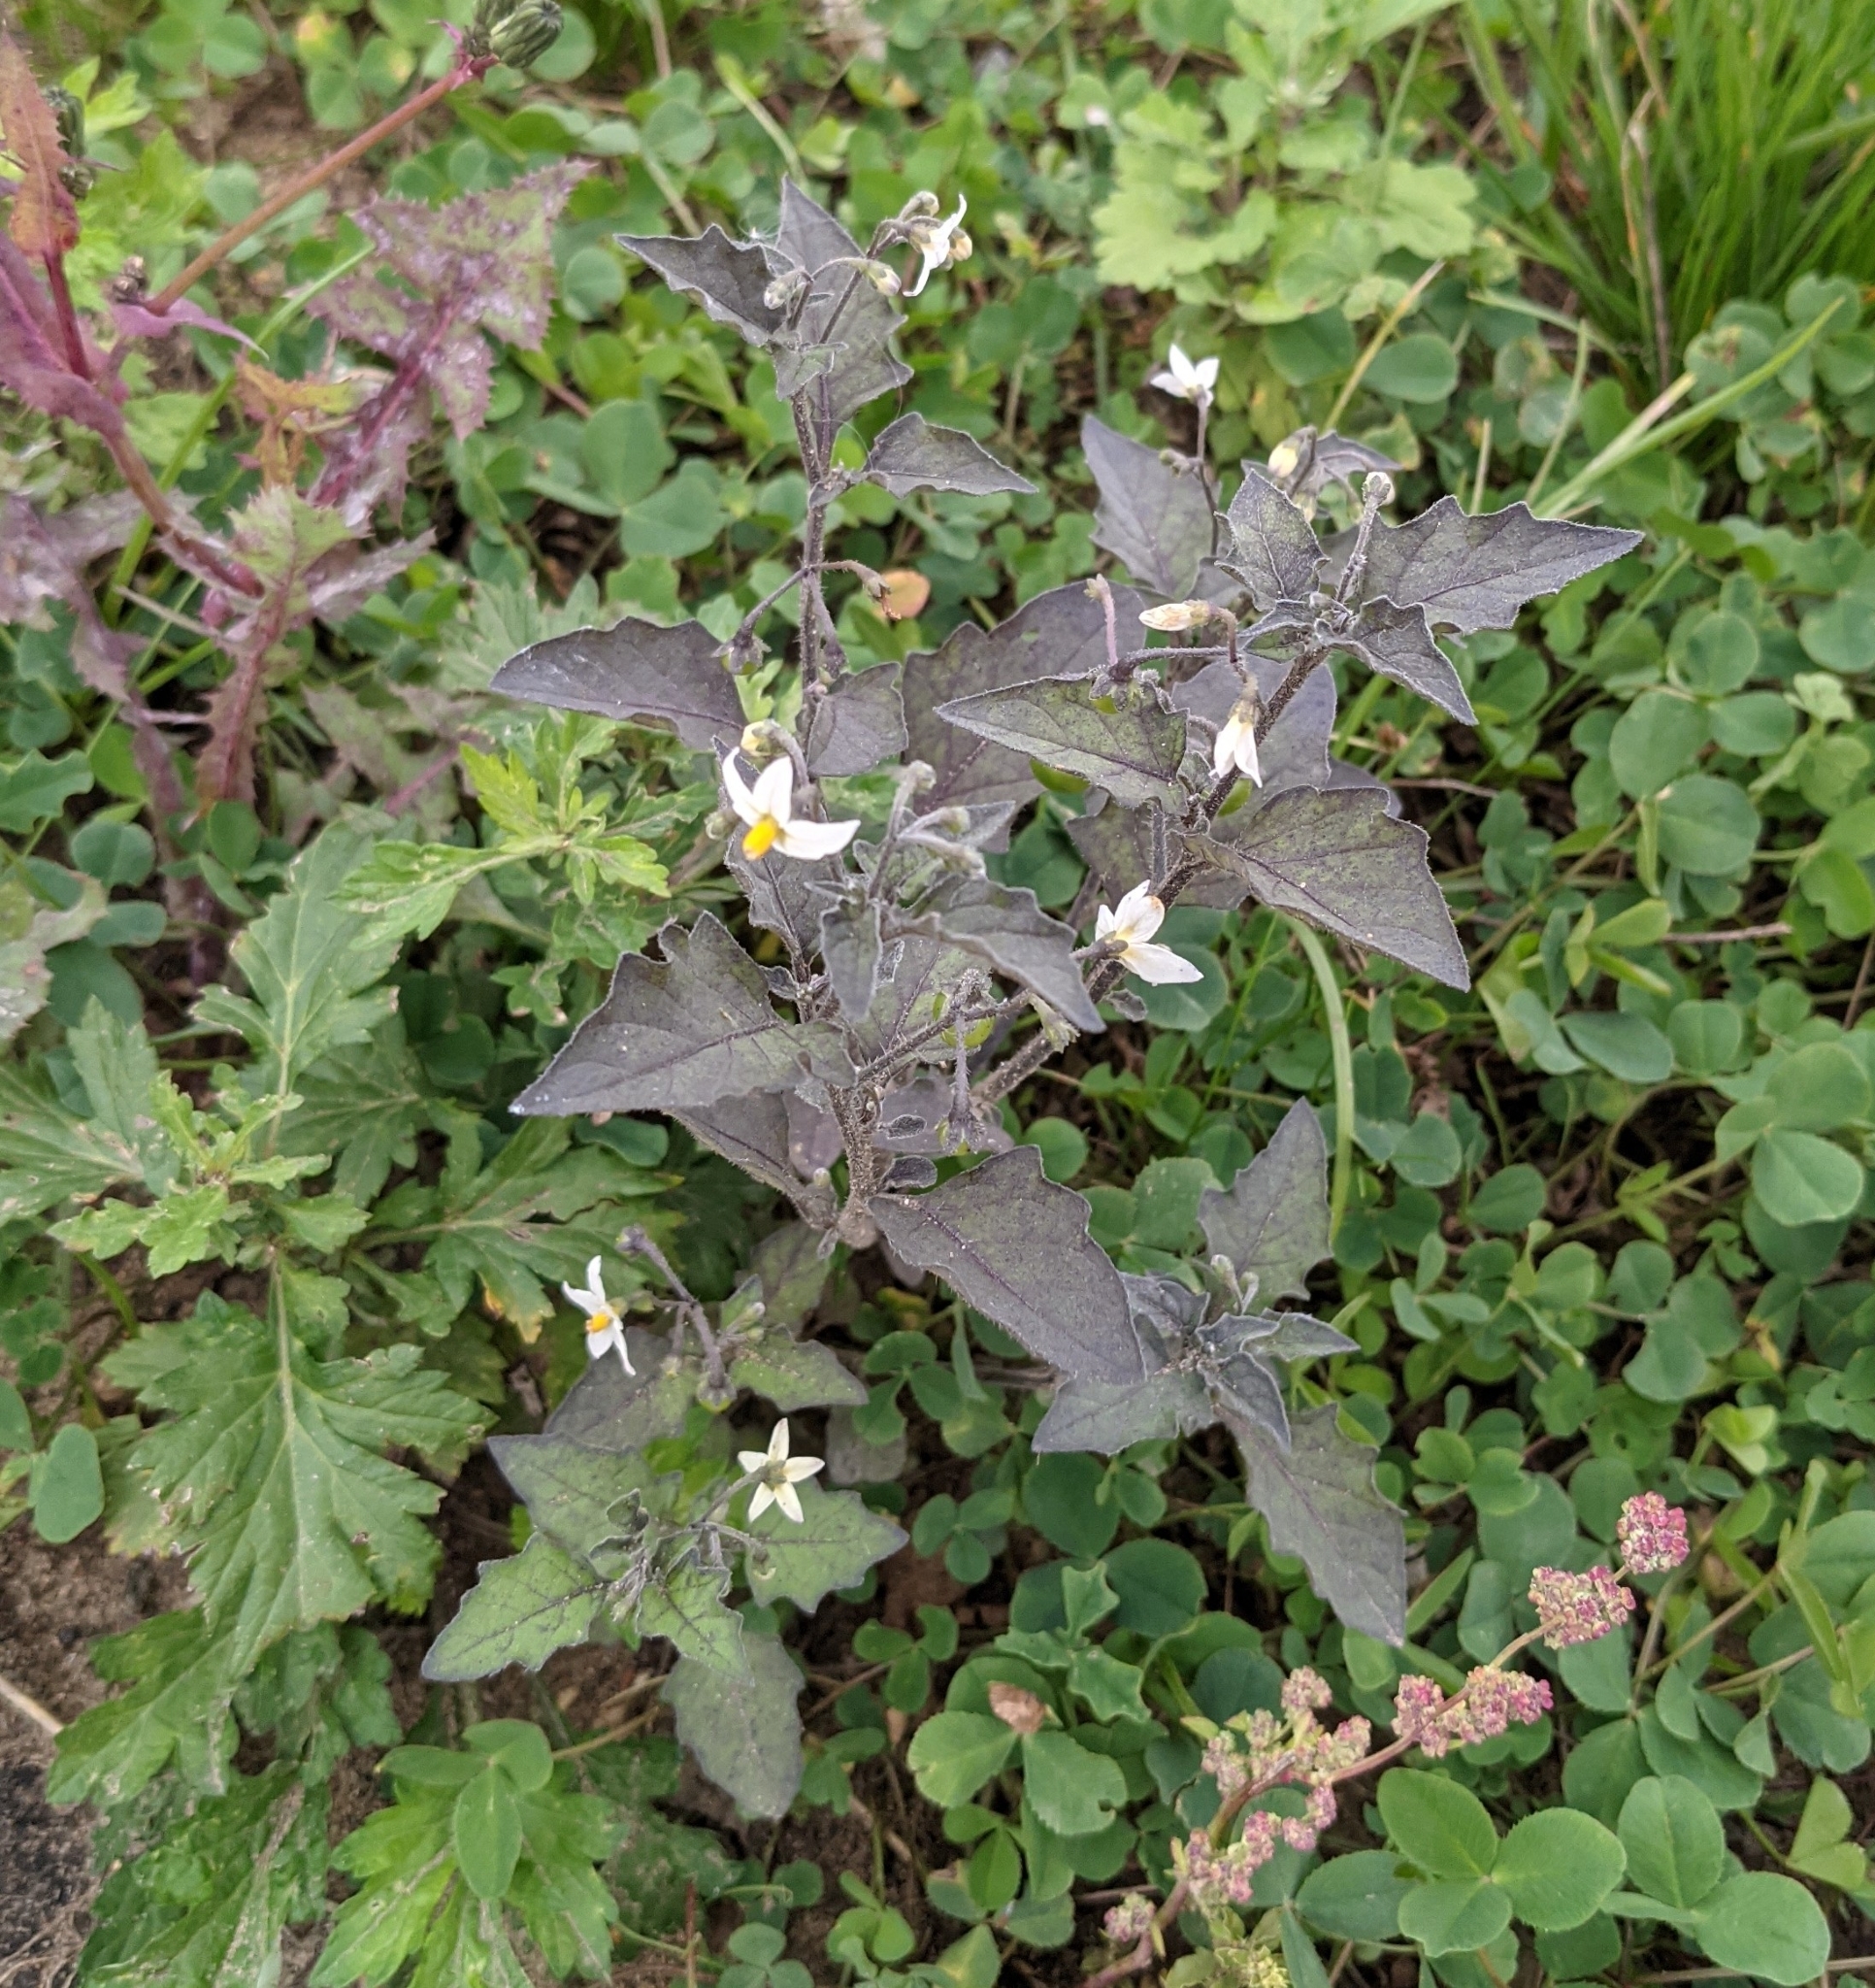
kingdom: Plantae
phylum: Tracheophyta
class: Magnoliopsida
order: Solanales
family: Solanaceae
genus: Solanum
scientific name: Solanum nigrum
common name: Black nightshade
